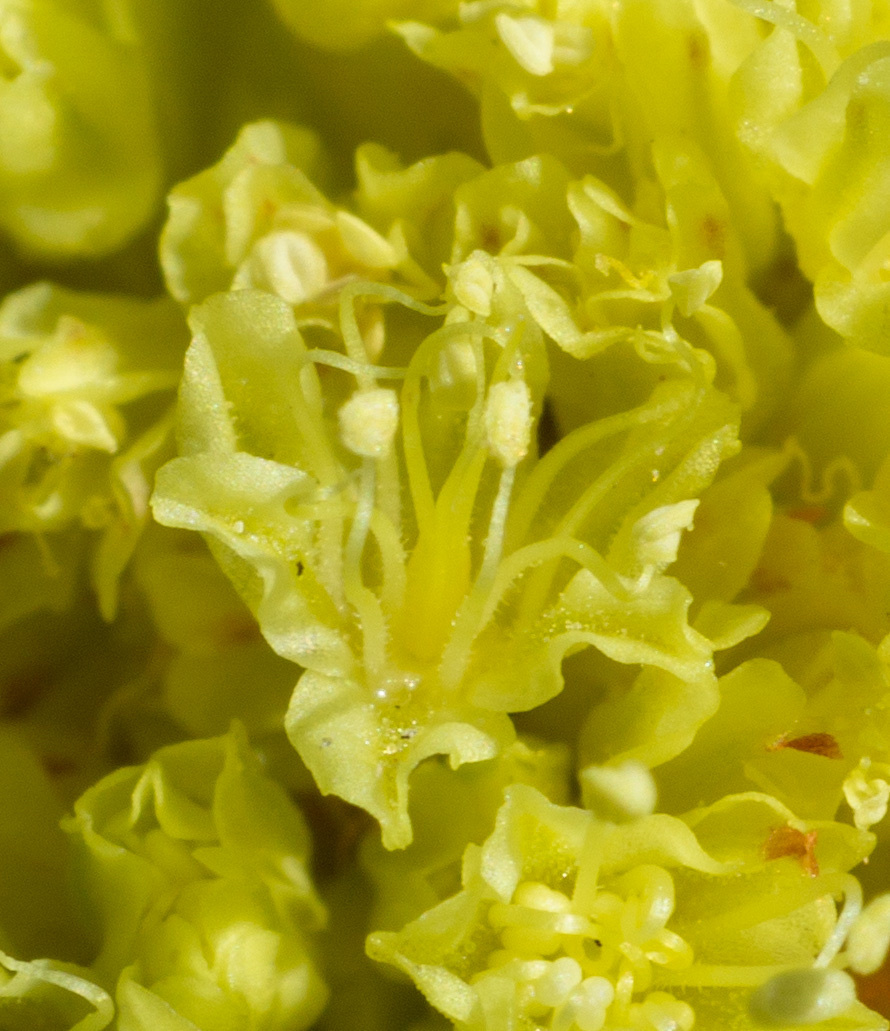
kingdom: Plantae
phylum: Tracheophyta
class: Magnoliopsida
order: Caryophyllales
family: Polygonaceae
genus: Eriogonum
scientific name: Eriogonum alexanderae
